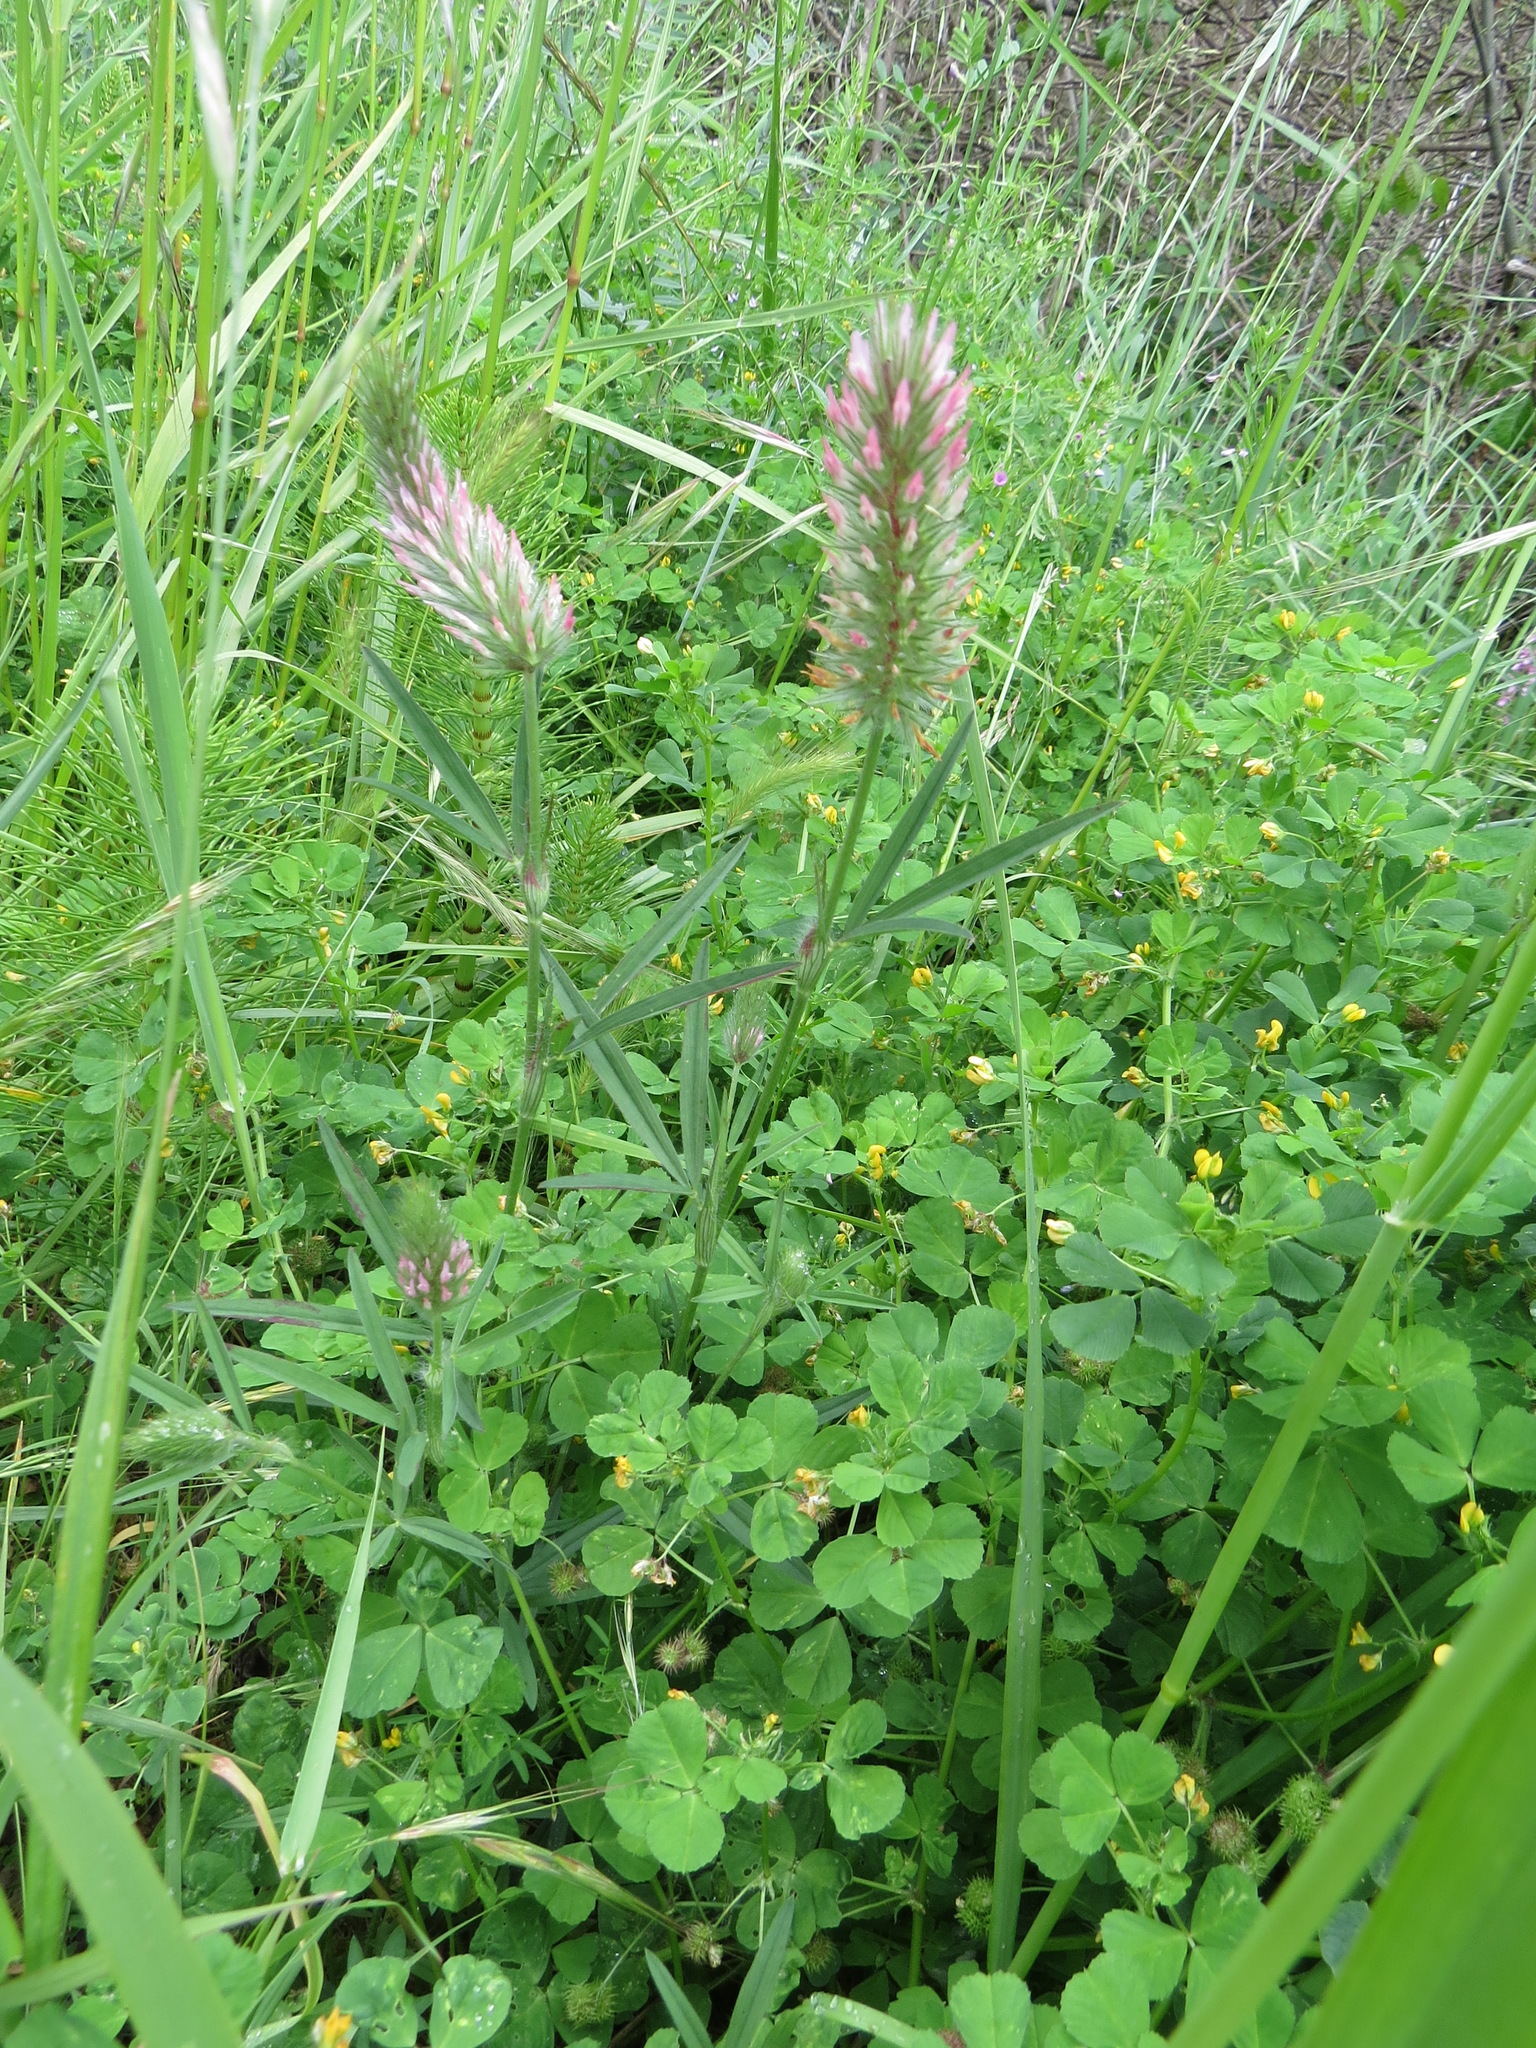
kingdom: Plantae
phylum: Tracheophyta
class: Magnoliopsida
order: Fabales
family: Fabaceae
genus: Trifolium
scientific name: Trifolium angustifolium
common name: Narrow clover
